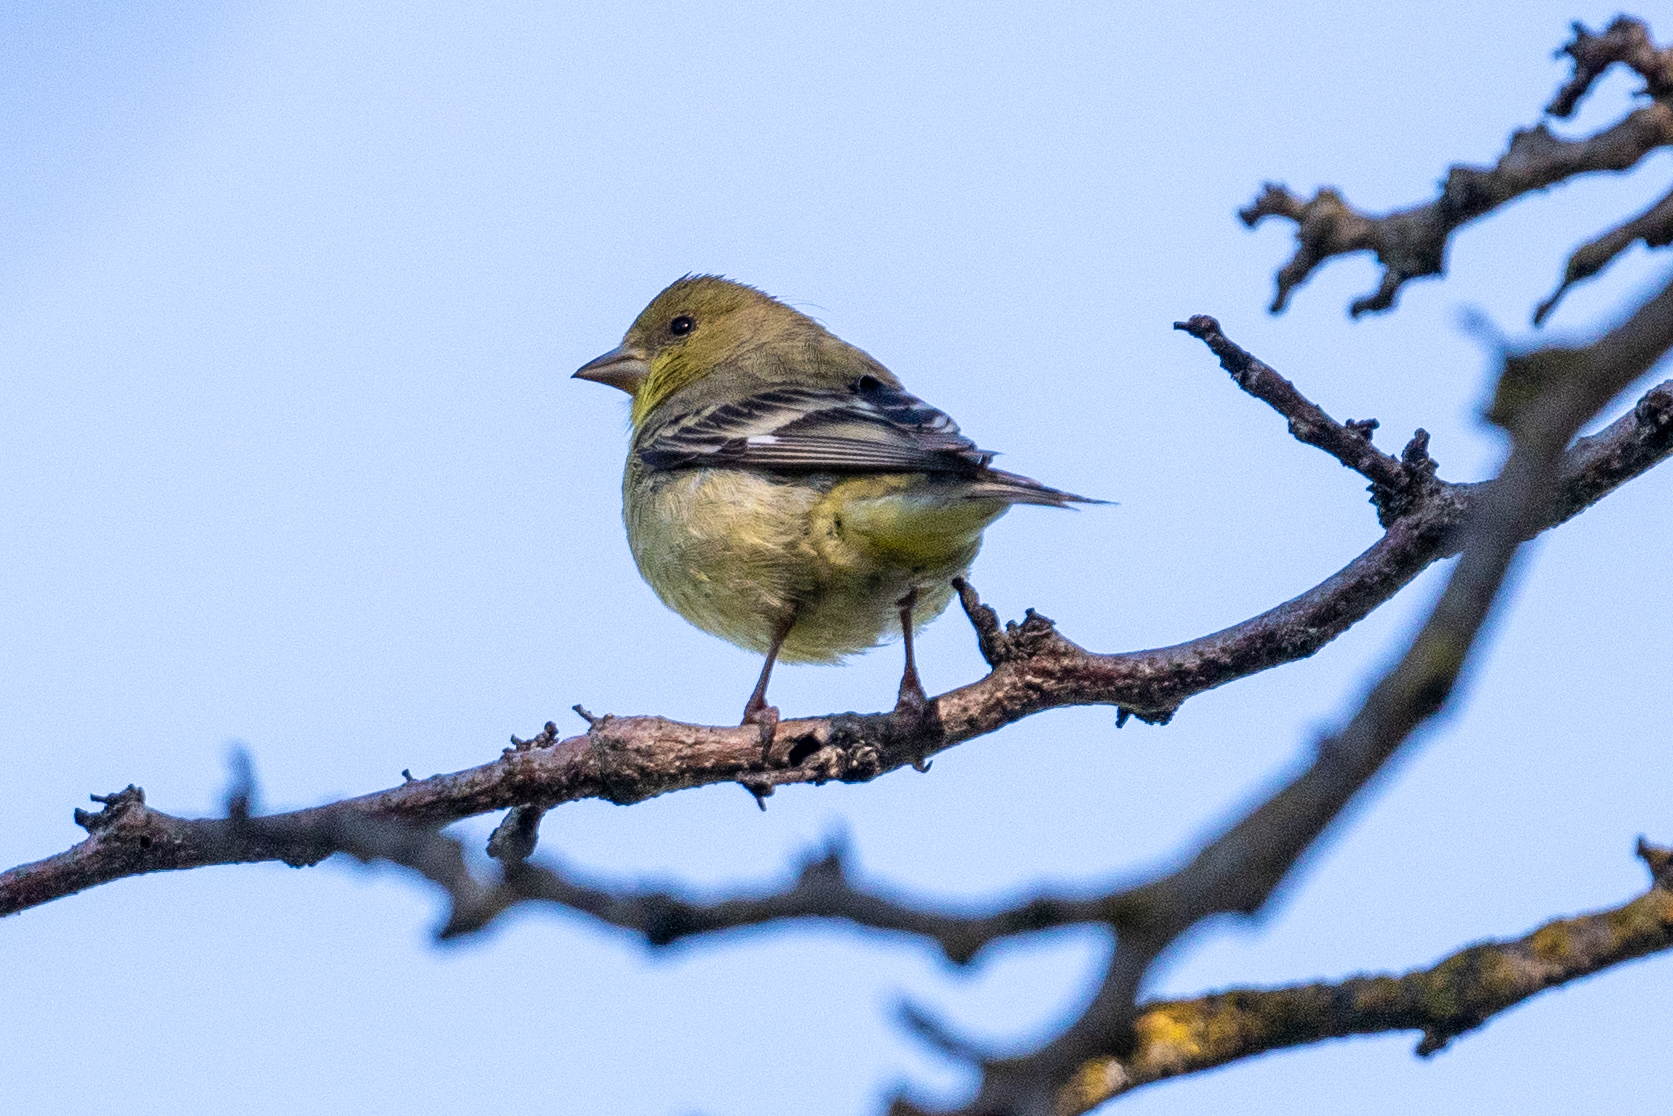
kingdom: Animalia
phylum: Chordata
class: Aves
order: Passeriformes
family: Fringillidae
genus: Spinus
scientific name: Spinus psaltria
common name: Lesser goldfinch
